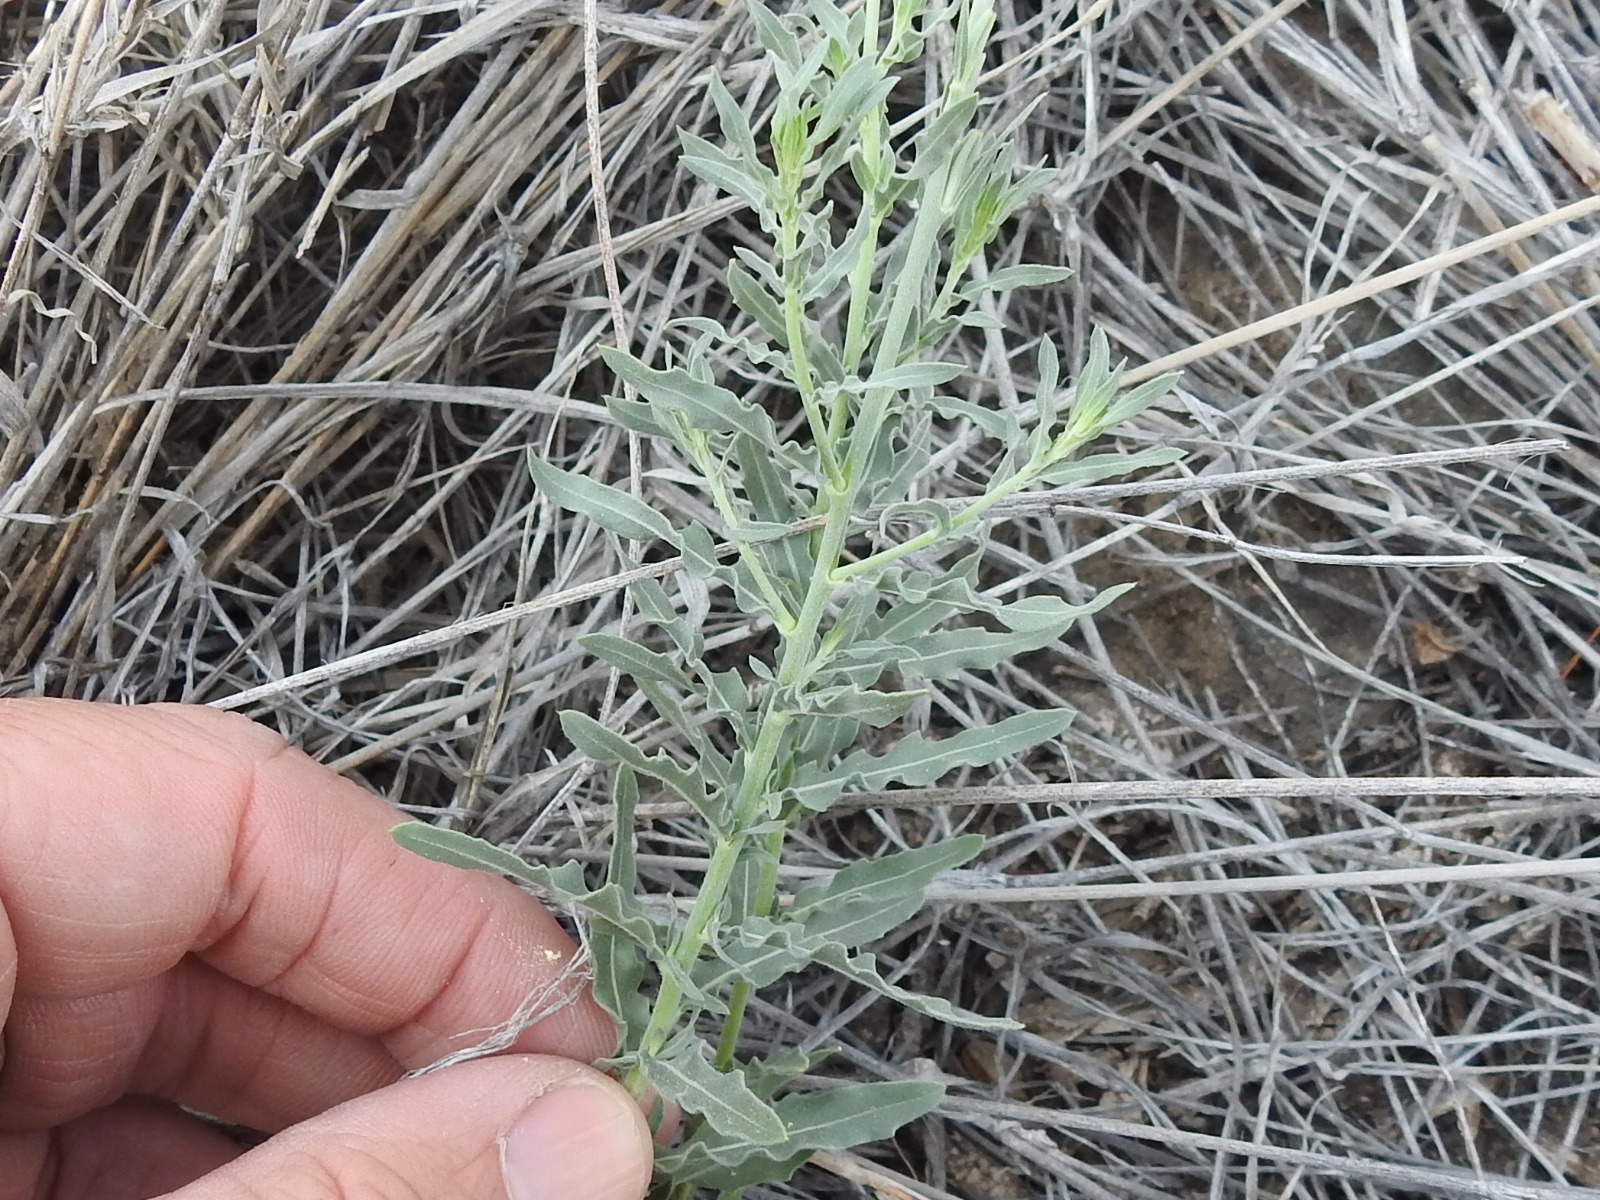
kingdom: Plantae
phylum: Tracheophyta
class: Magnoliopsida
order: Myrtales
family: Onagraceae
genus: Oenothera
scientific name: Oenothera suffrutescens
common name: Scarlet beeblossom
